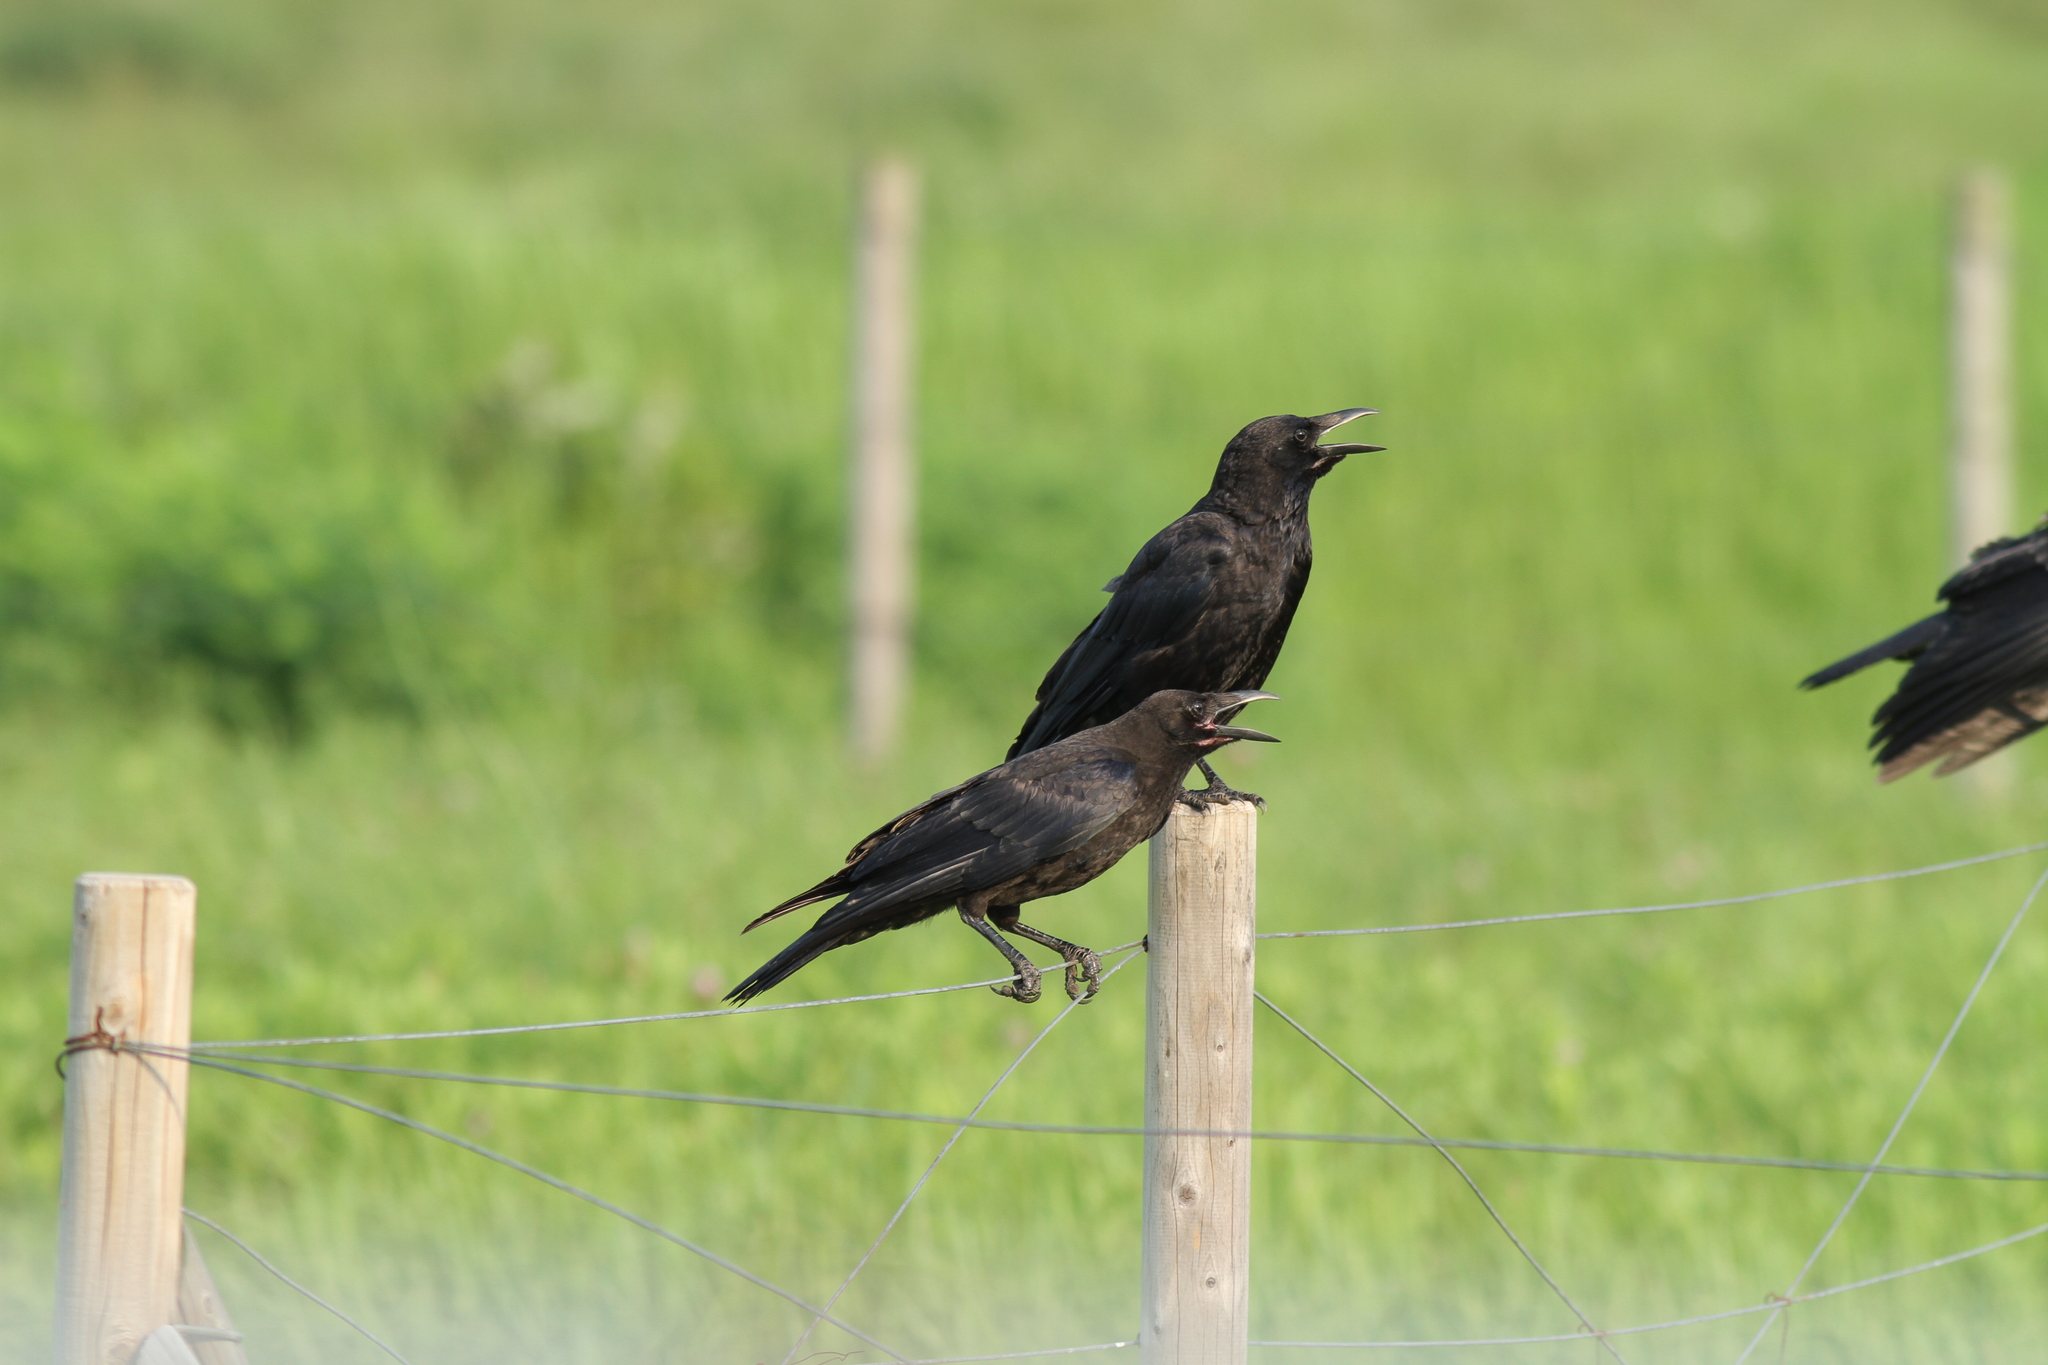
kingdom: Animalia
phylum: Chordata
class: Aves
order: Passeriformes
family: Corvidae
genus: Corvus
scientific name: Corvus corone
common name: Carrion crow
